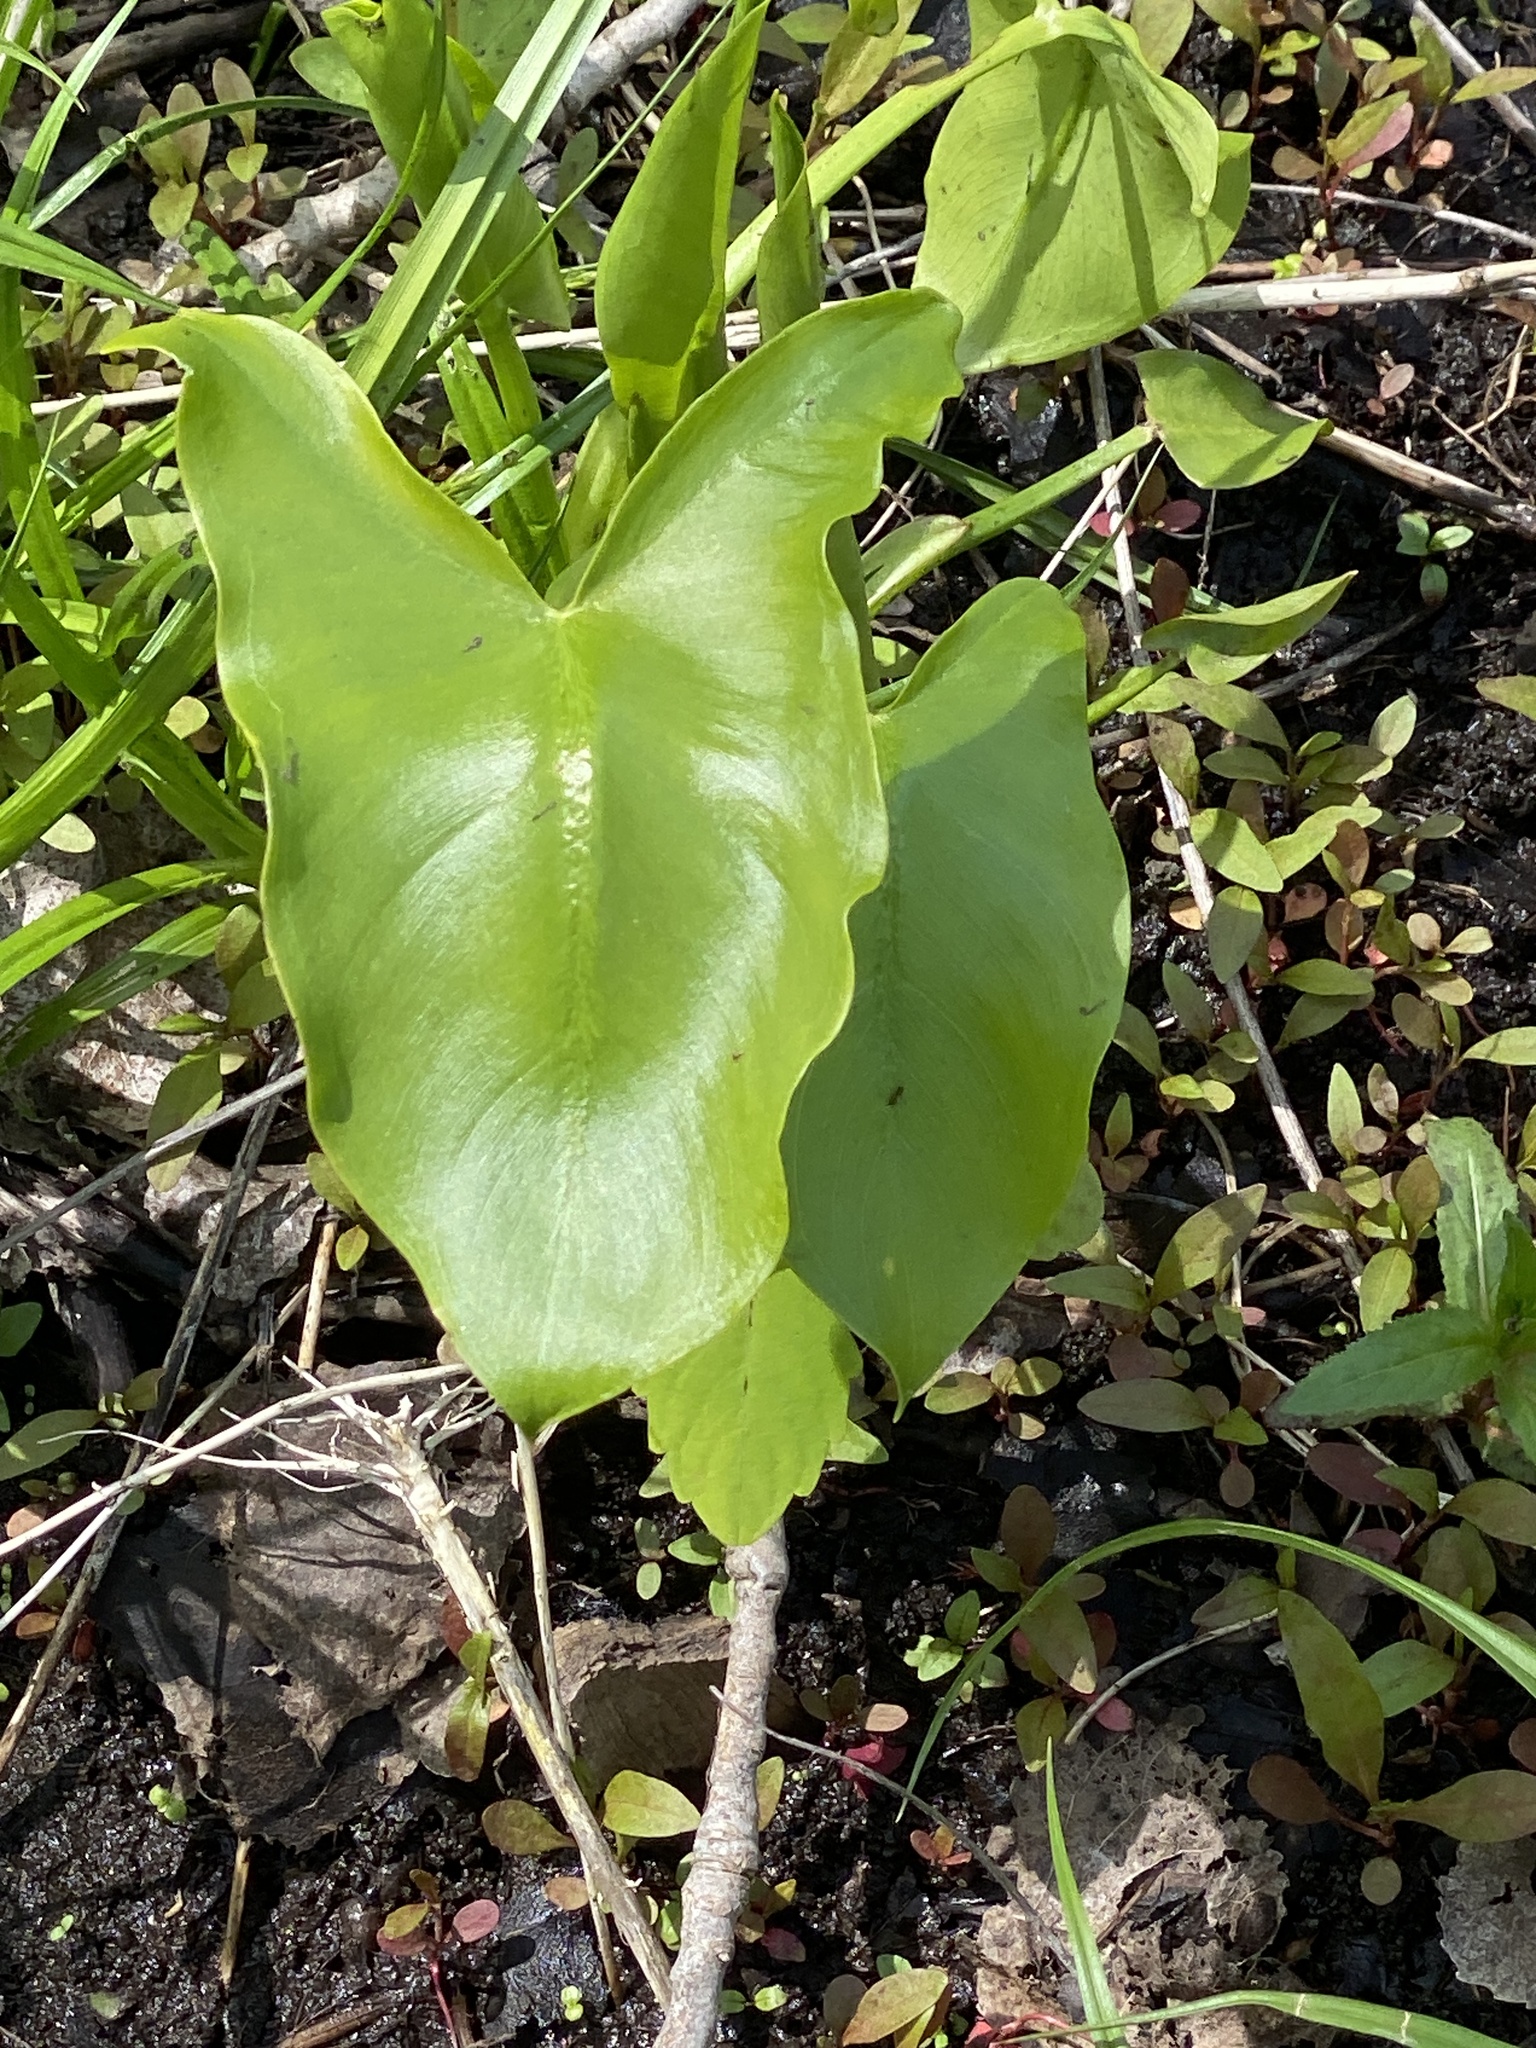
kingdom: Plantae
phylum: Tracheophyta
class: Liliopsida
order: Alismatales
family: Araceae
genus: Peltandra
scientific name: Peltandra virginica
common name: Arrow arum
